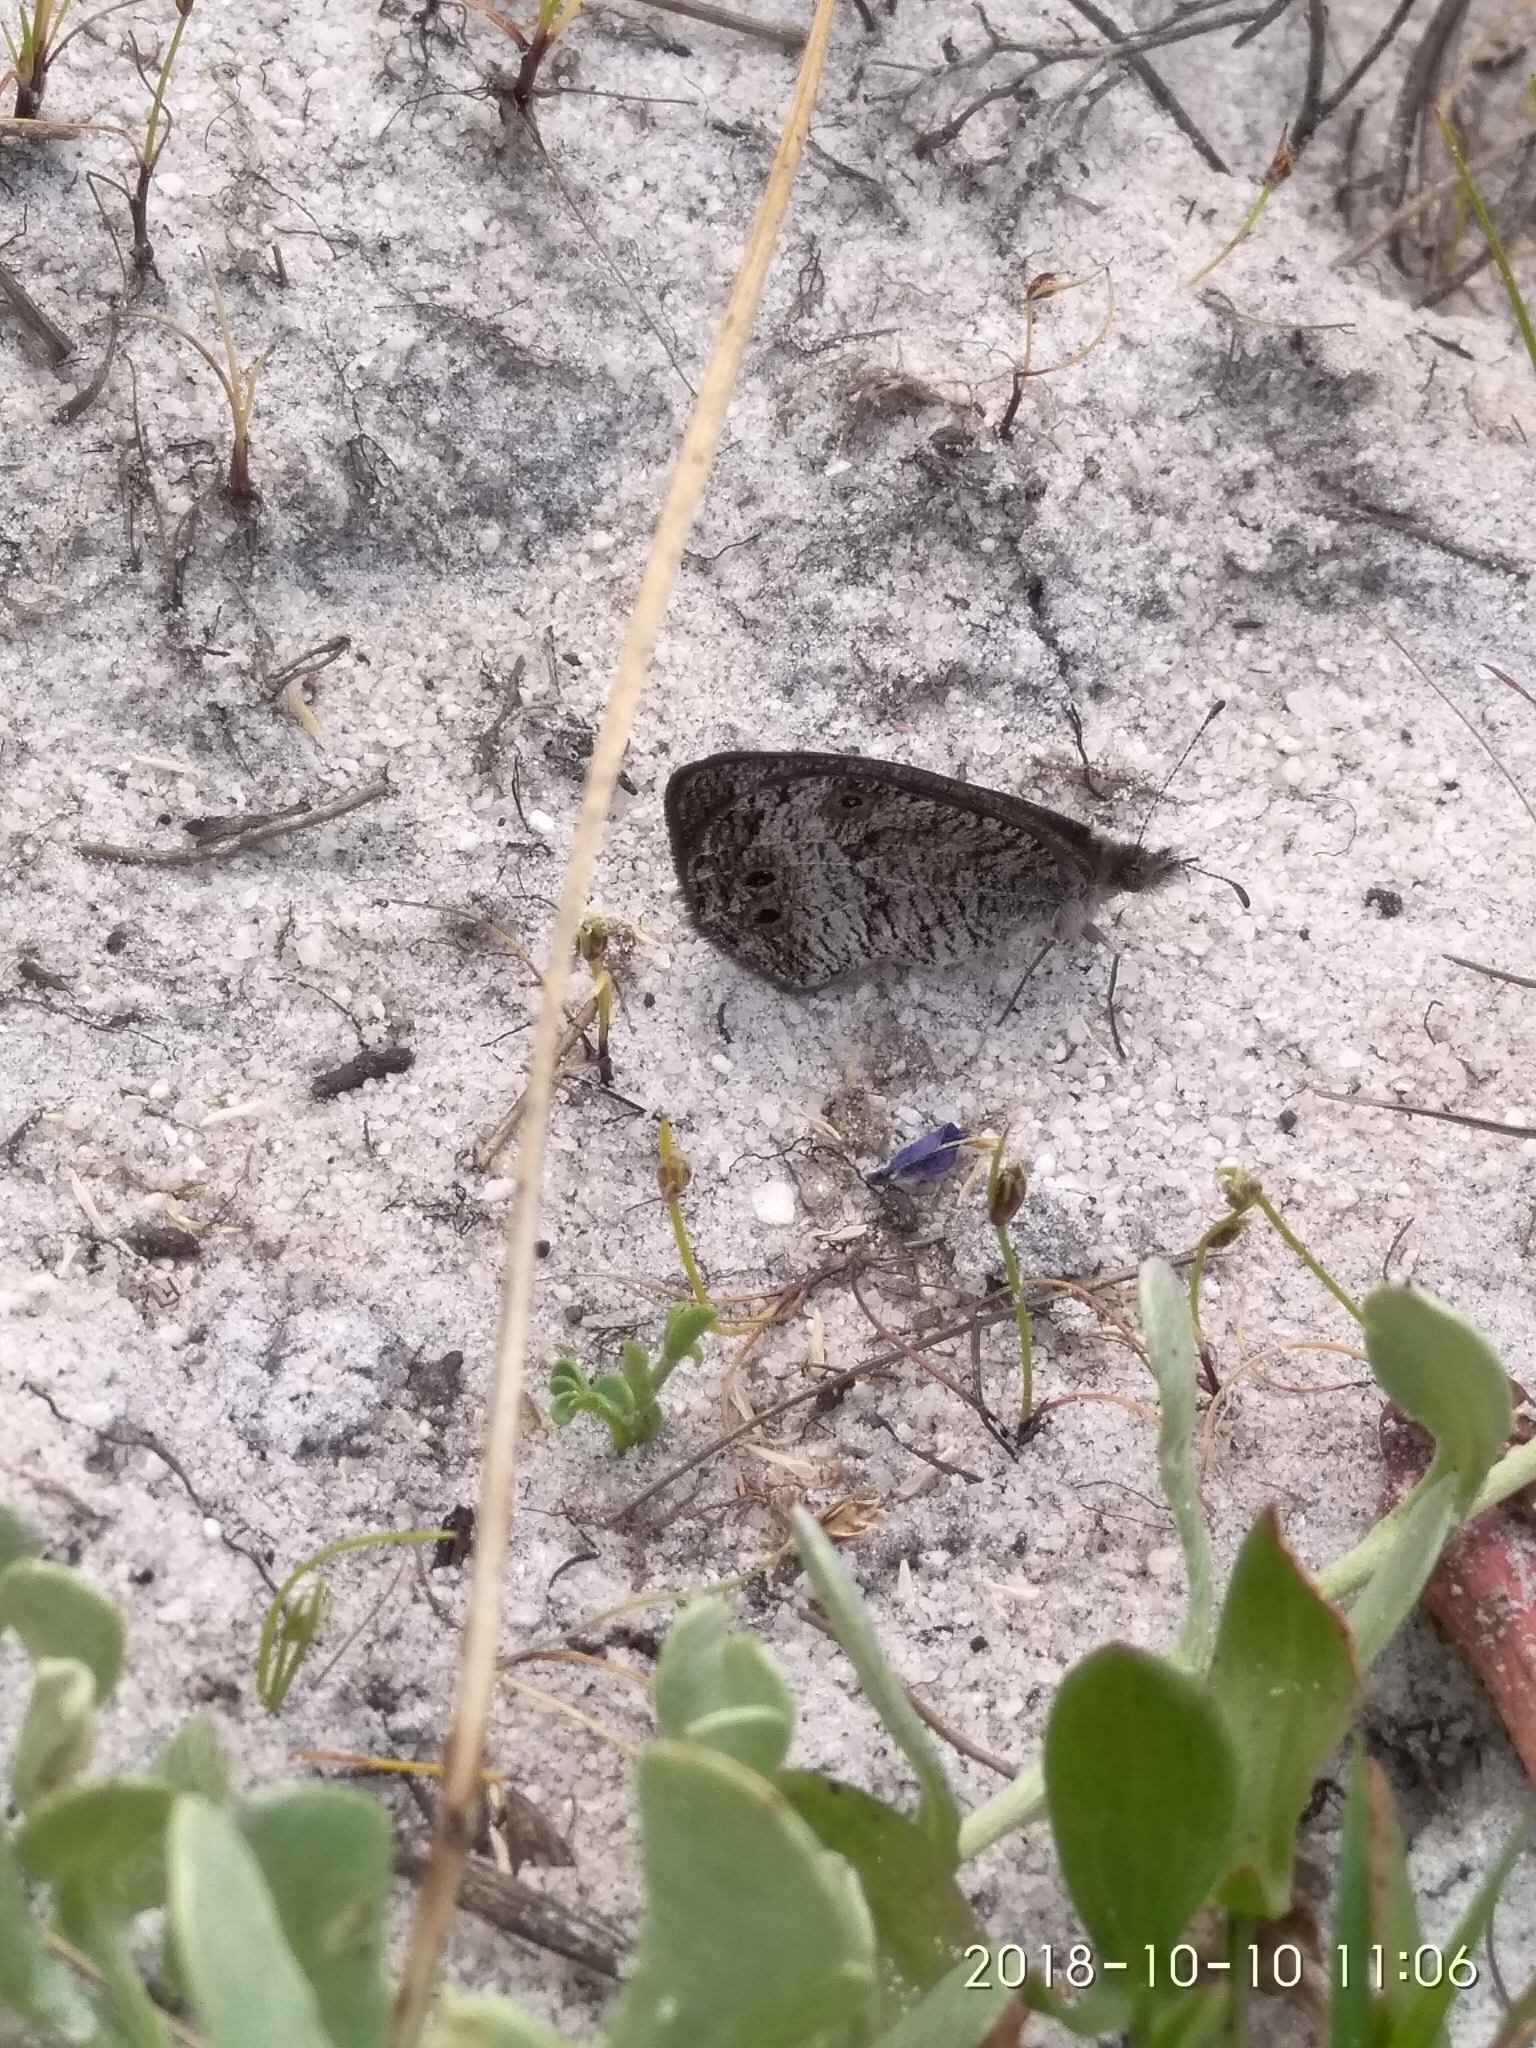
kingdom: Animalia
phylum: Arthropoda
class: Insecta
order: Lepidoptera
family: Nymphalidae
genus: Pseudonympha
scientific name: Pseudonympha magus
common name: Silver-bottom brown
